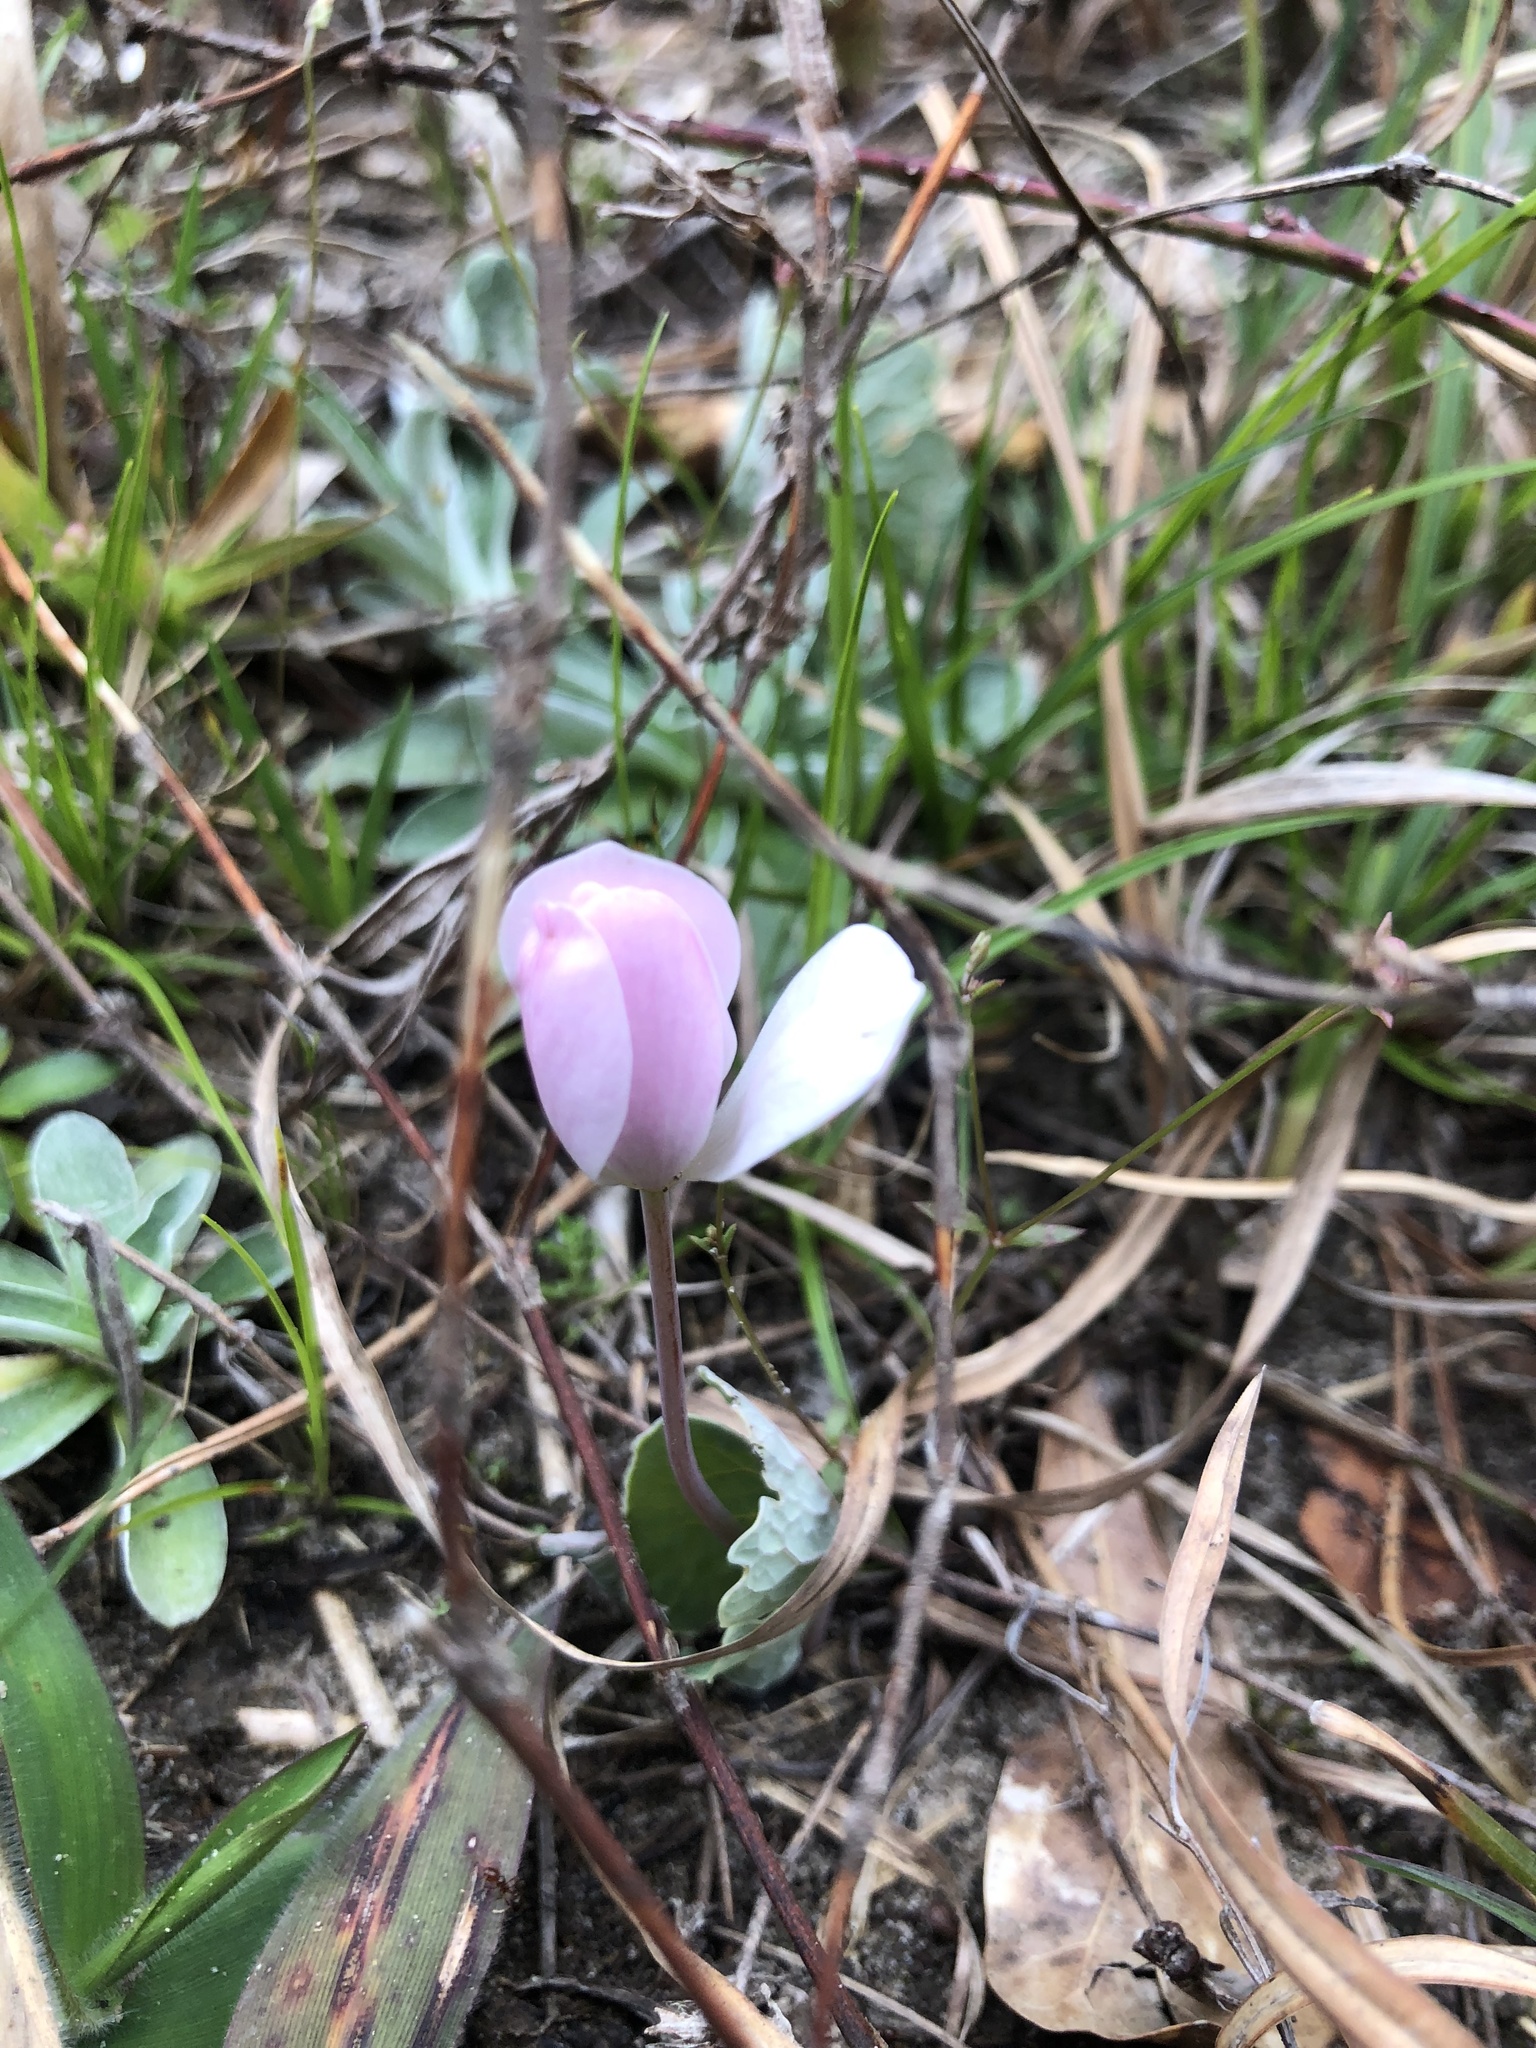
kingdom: Plantae
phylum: Tracheophyta
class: Magnoliopsida
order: Ranunculales
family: Papaveraceae
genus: Sanguinaria
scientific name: Sanguinaria canadensis
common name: Bloodroot
